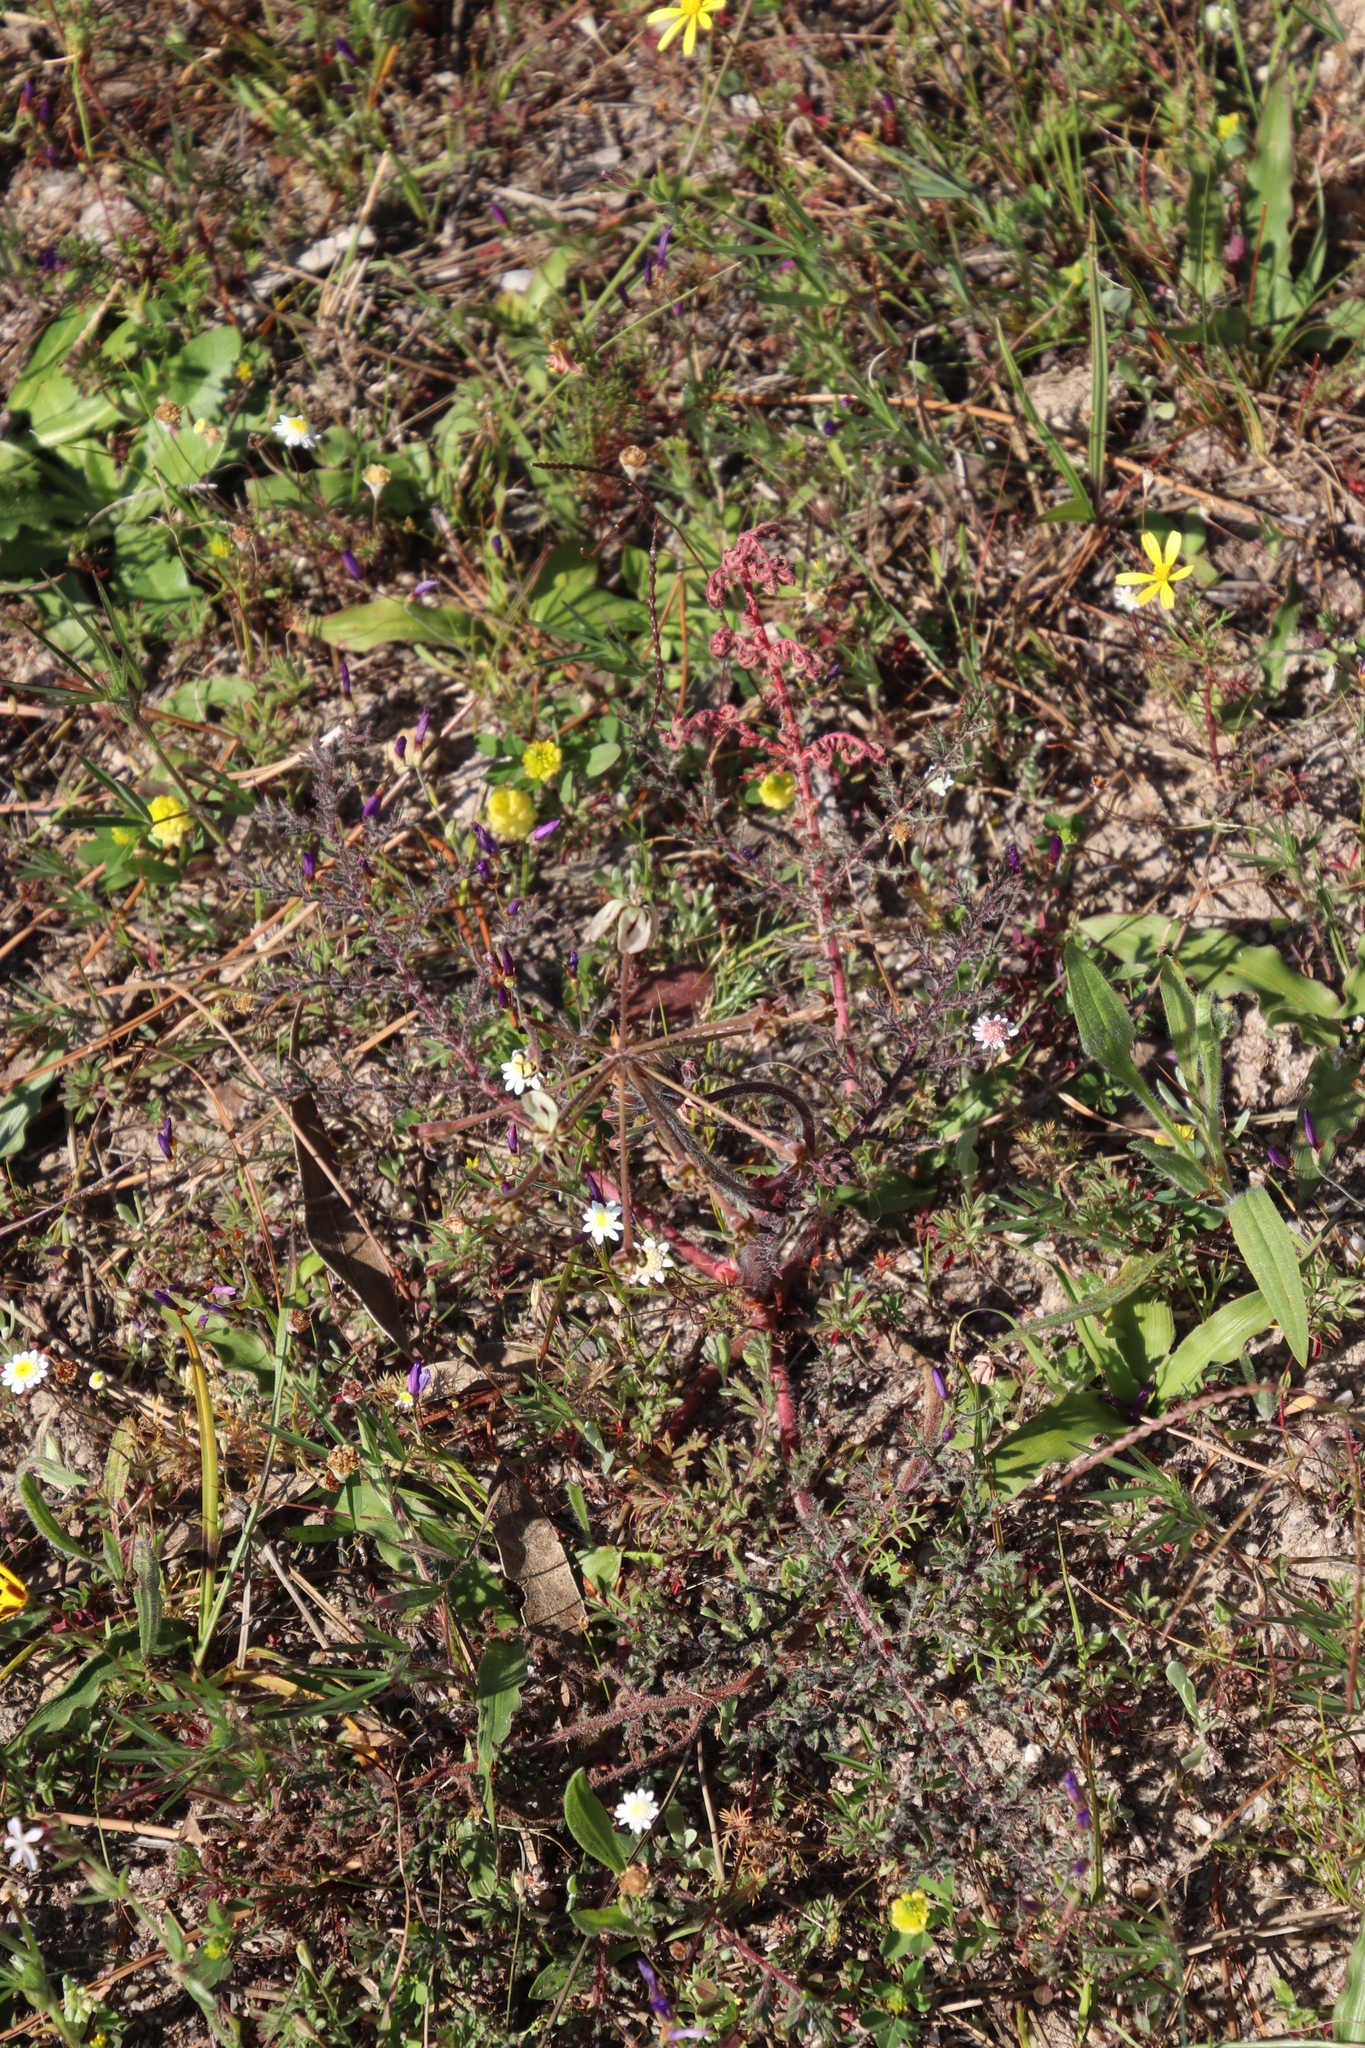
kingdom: Plantae
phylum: Tracheophyta
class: Magnoliopsida
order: Geraniales
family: Geraniaceae
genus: Pelargonium
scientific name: Pelargonium triste
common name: Night-scent pelargonium
